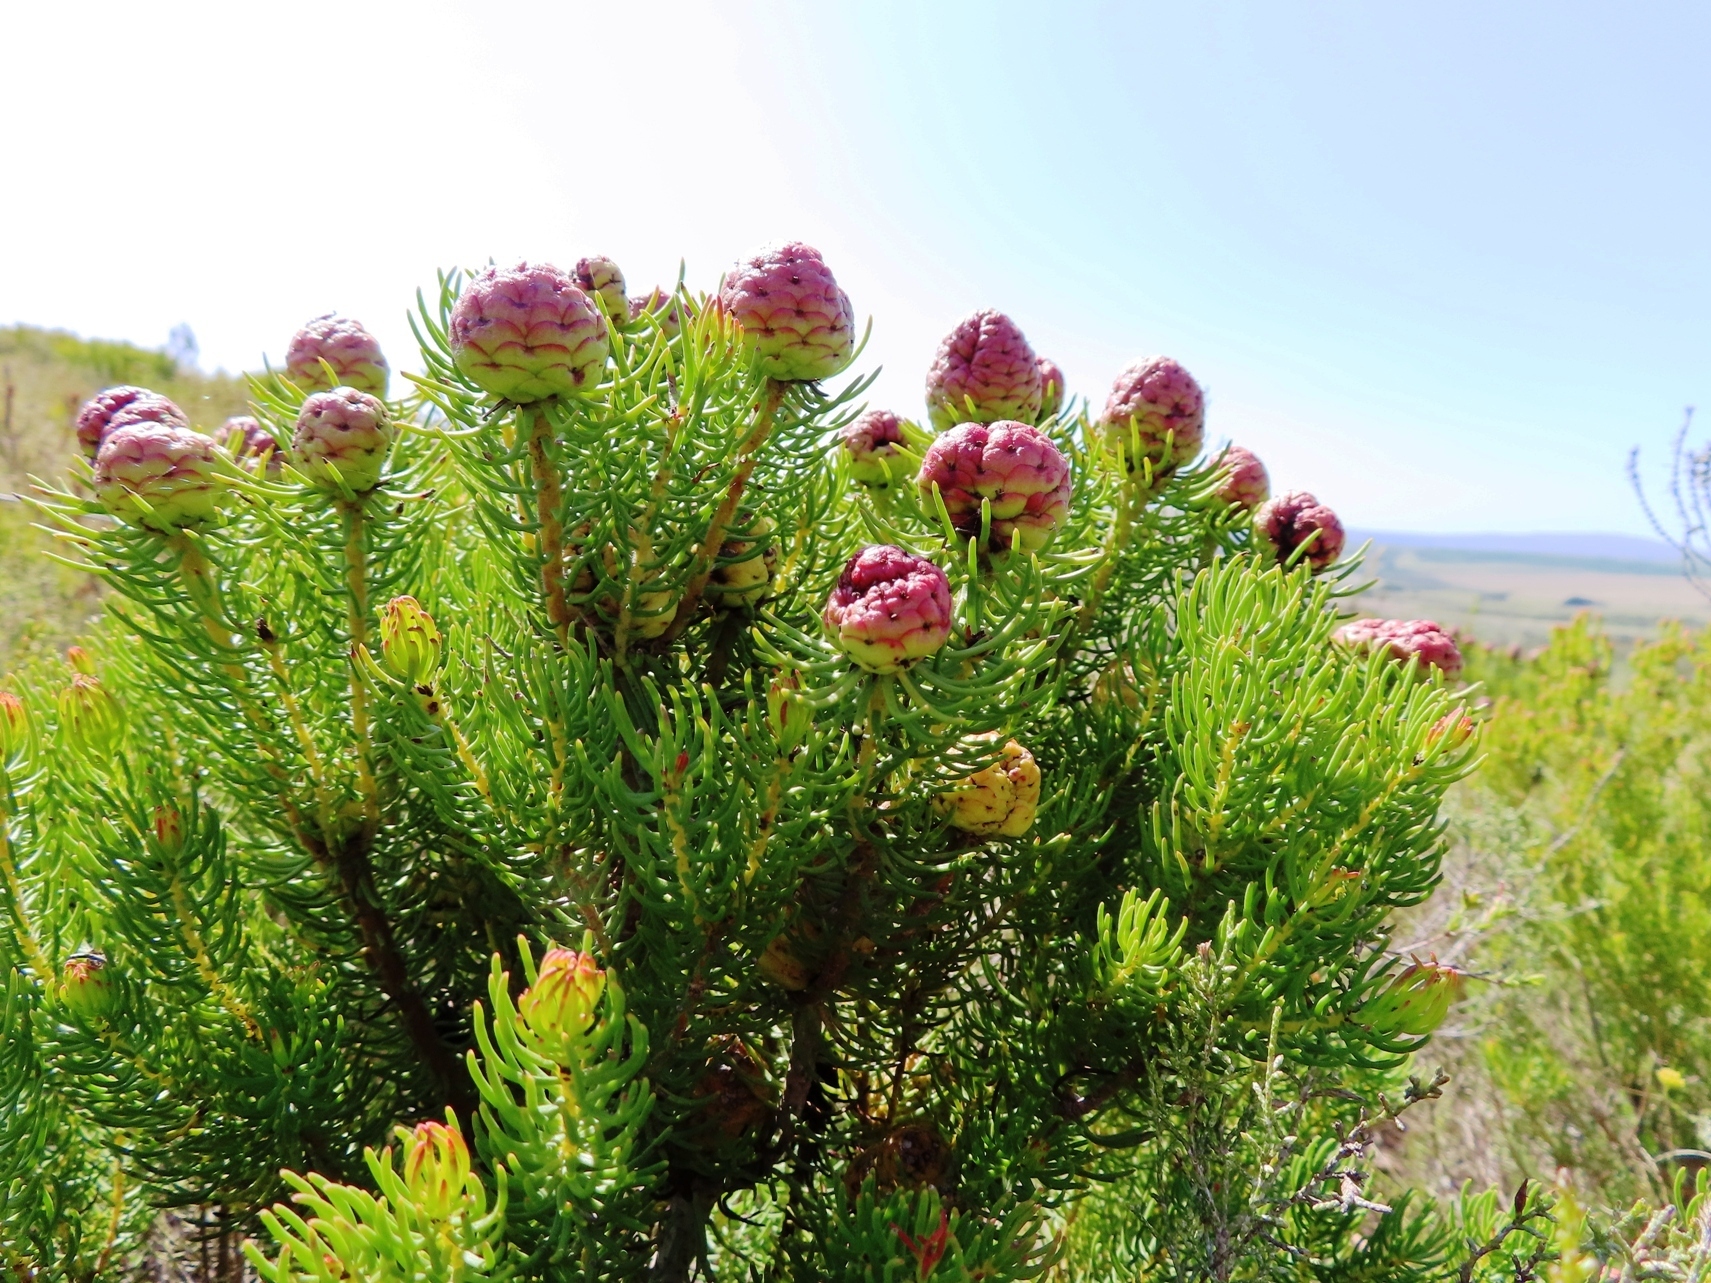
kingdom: Plantae
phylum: Tracheophyta
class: Magnoliopsida
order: Proteales
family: Proteaceae
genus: Leucadendron
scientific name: Leucadendron teretifolium
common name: Needle-leaf conebush
